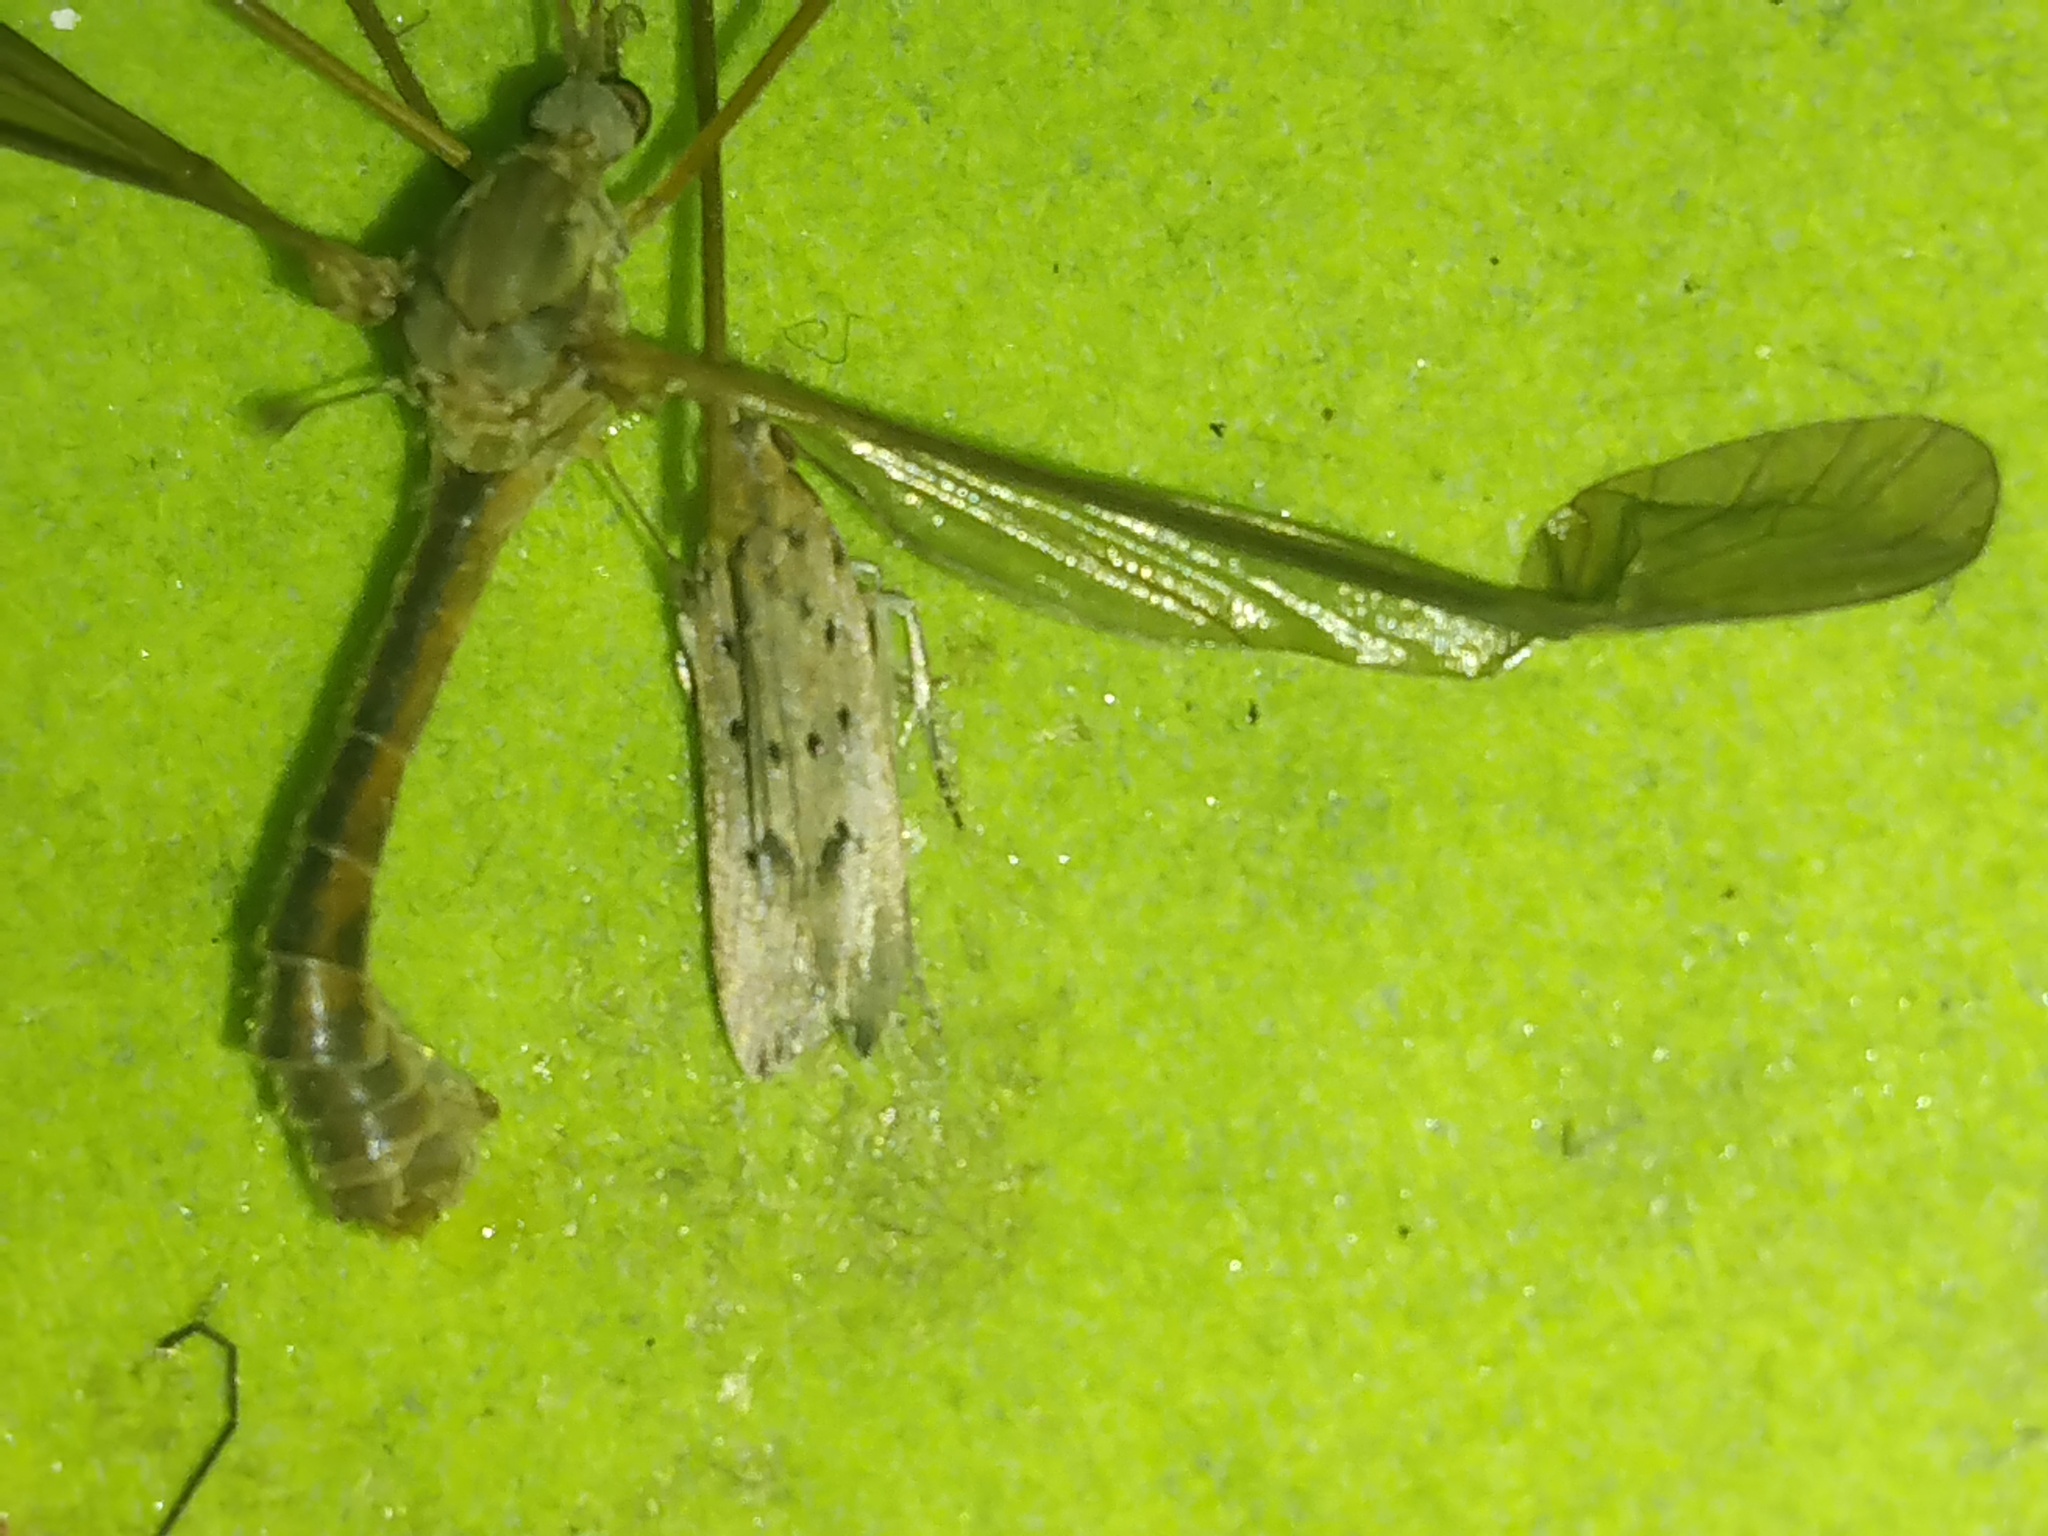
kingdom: Animalia
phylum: Arthropoda
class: Insecta
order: Lepidoptera
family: Gelechiidae
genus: Athrips
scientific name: Athrips mouffetella
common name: Dotted grey groundling
